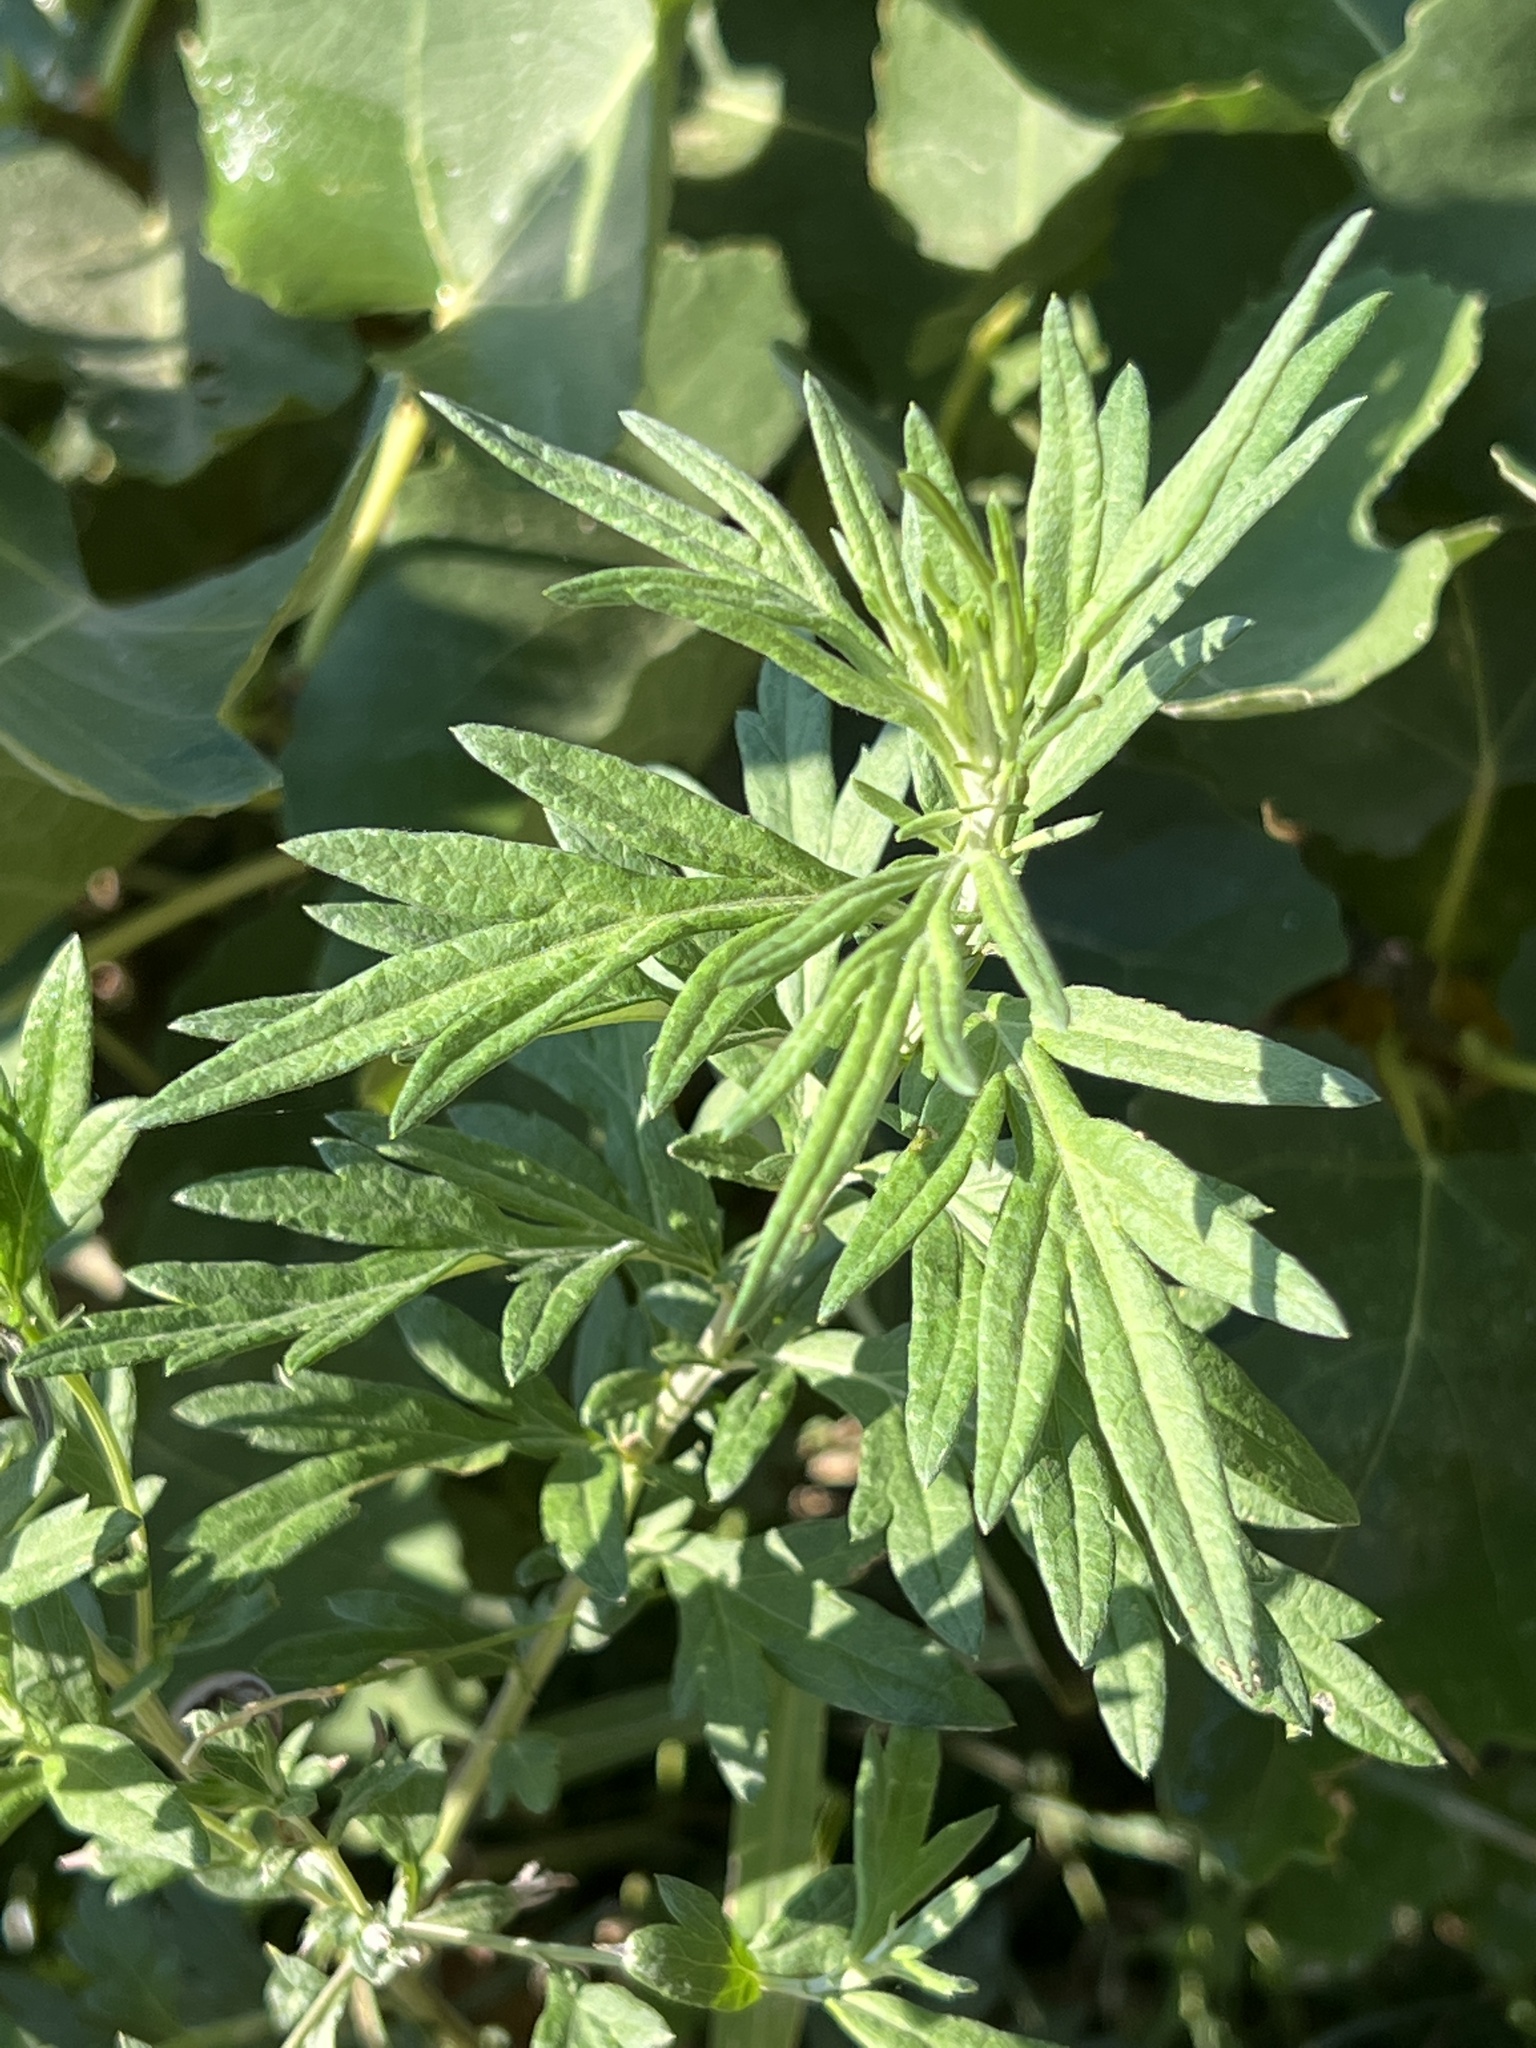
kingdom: Plantae
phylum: Tracheophyta
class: Magnoliopsida
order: Asterales
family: Asteraceae
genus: Artemisia
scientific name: Artemisia verlotiorum
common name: Chinese mugwort
